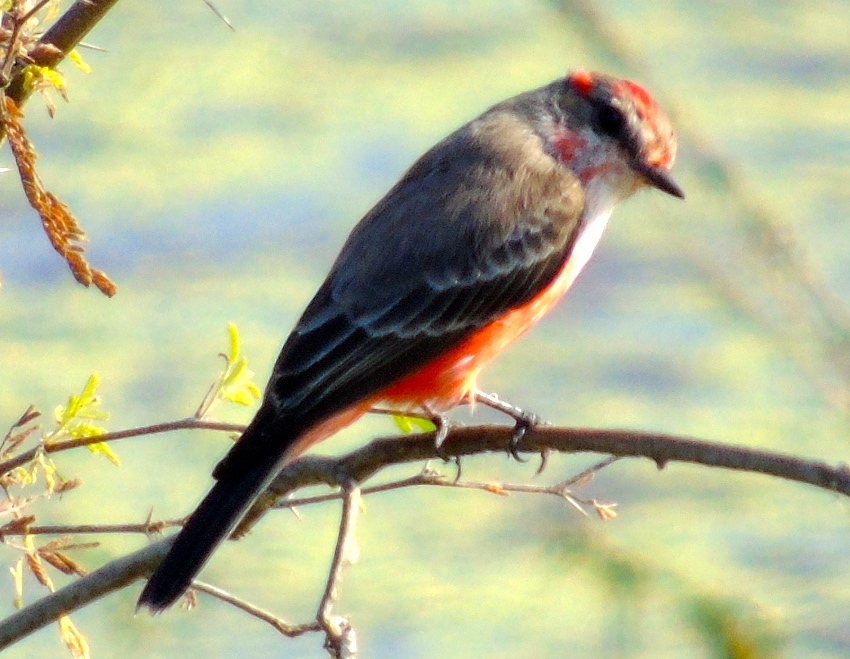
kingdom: Animalia
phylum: Chordata
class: Aves
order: Passeriformes
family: Tyrannidae
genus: Pyrocephalus
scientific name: Pyrocephalus rubinus
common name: Vermilion flycatcher
